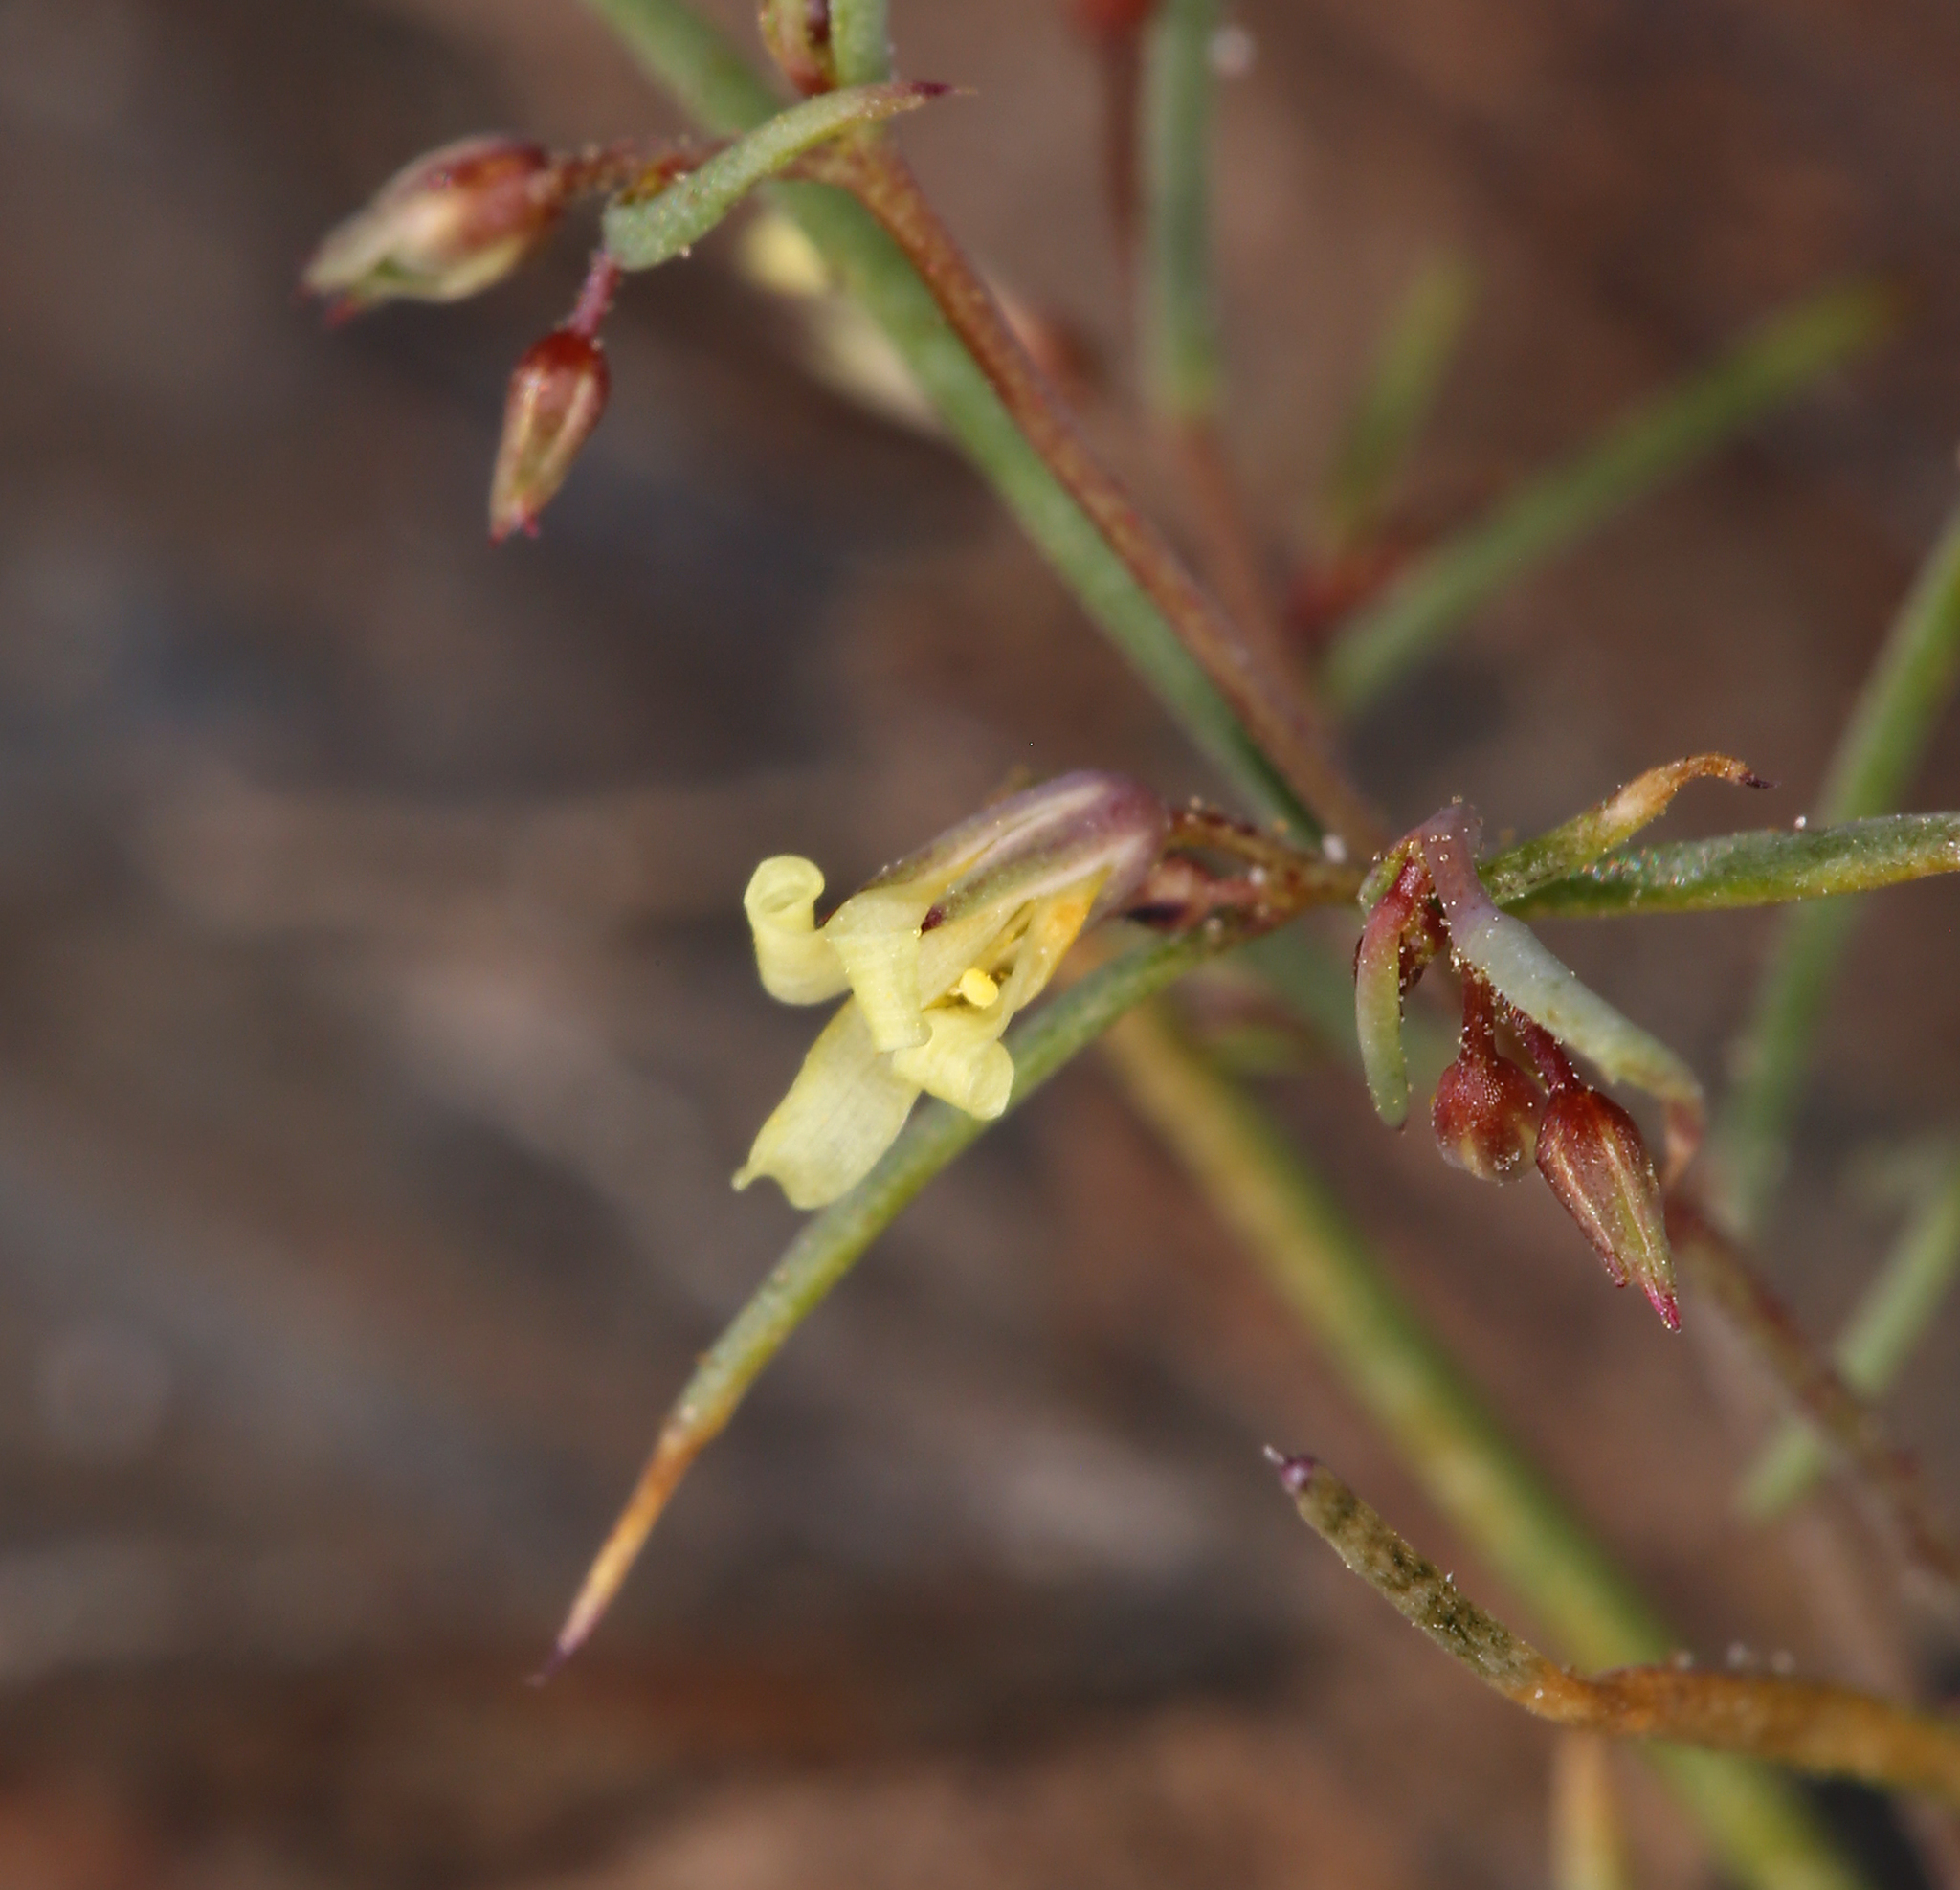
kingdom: Plantae
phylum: Tracheophyta
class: Magnoliopsida
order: Ericales
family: Polemoniaceae
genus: Linanthus
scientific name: Linanthus filiformis
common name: Yellow gilia
